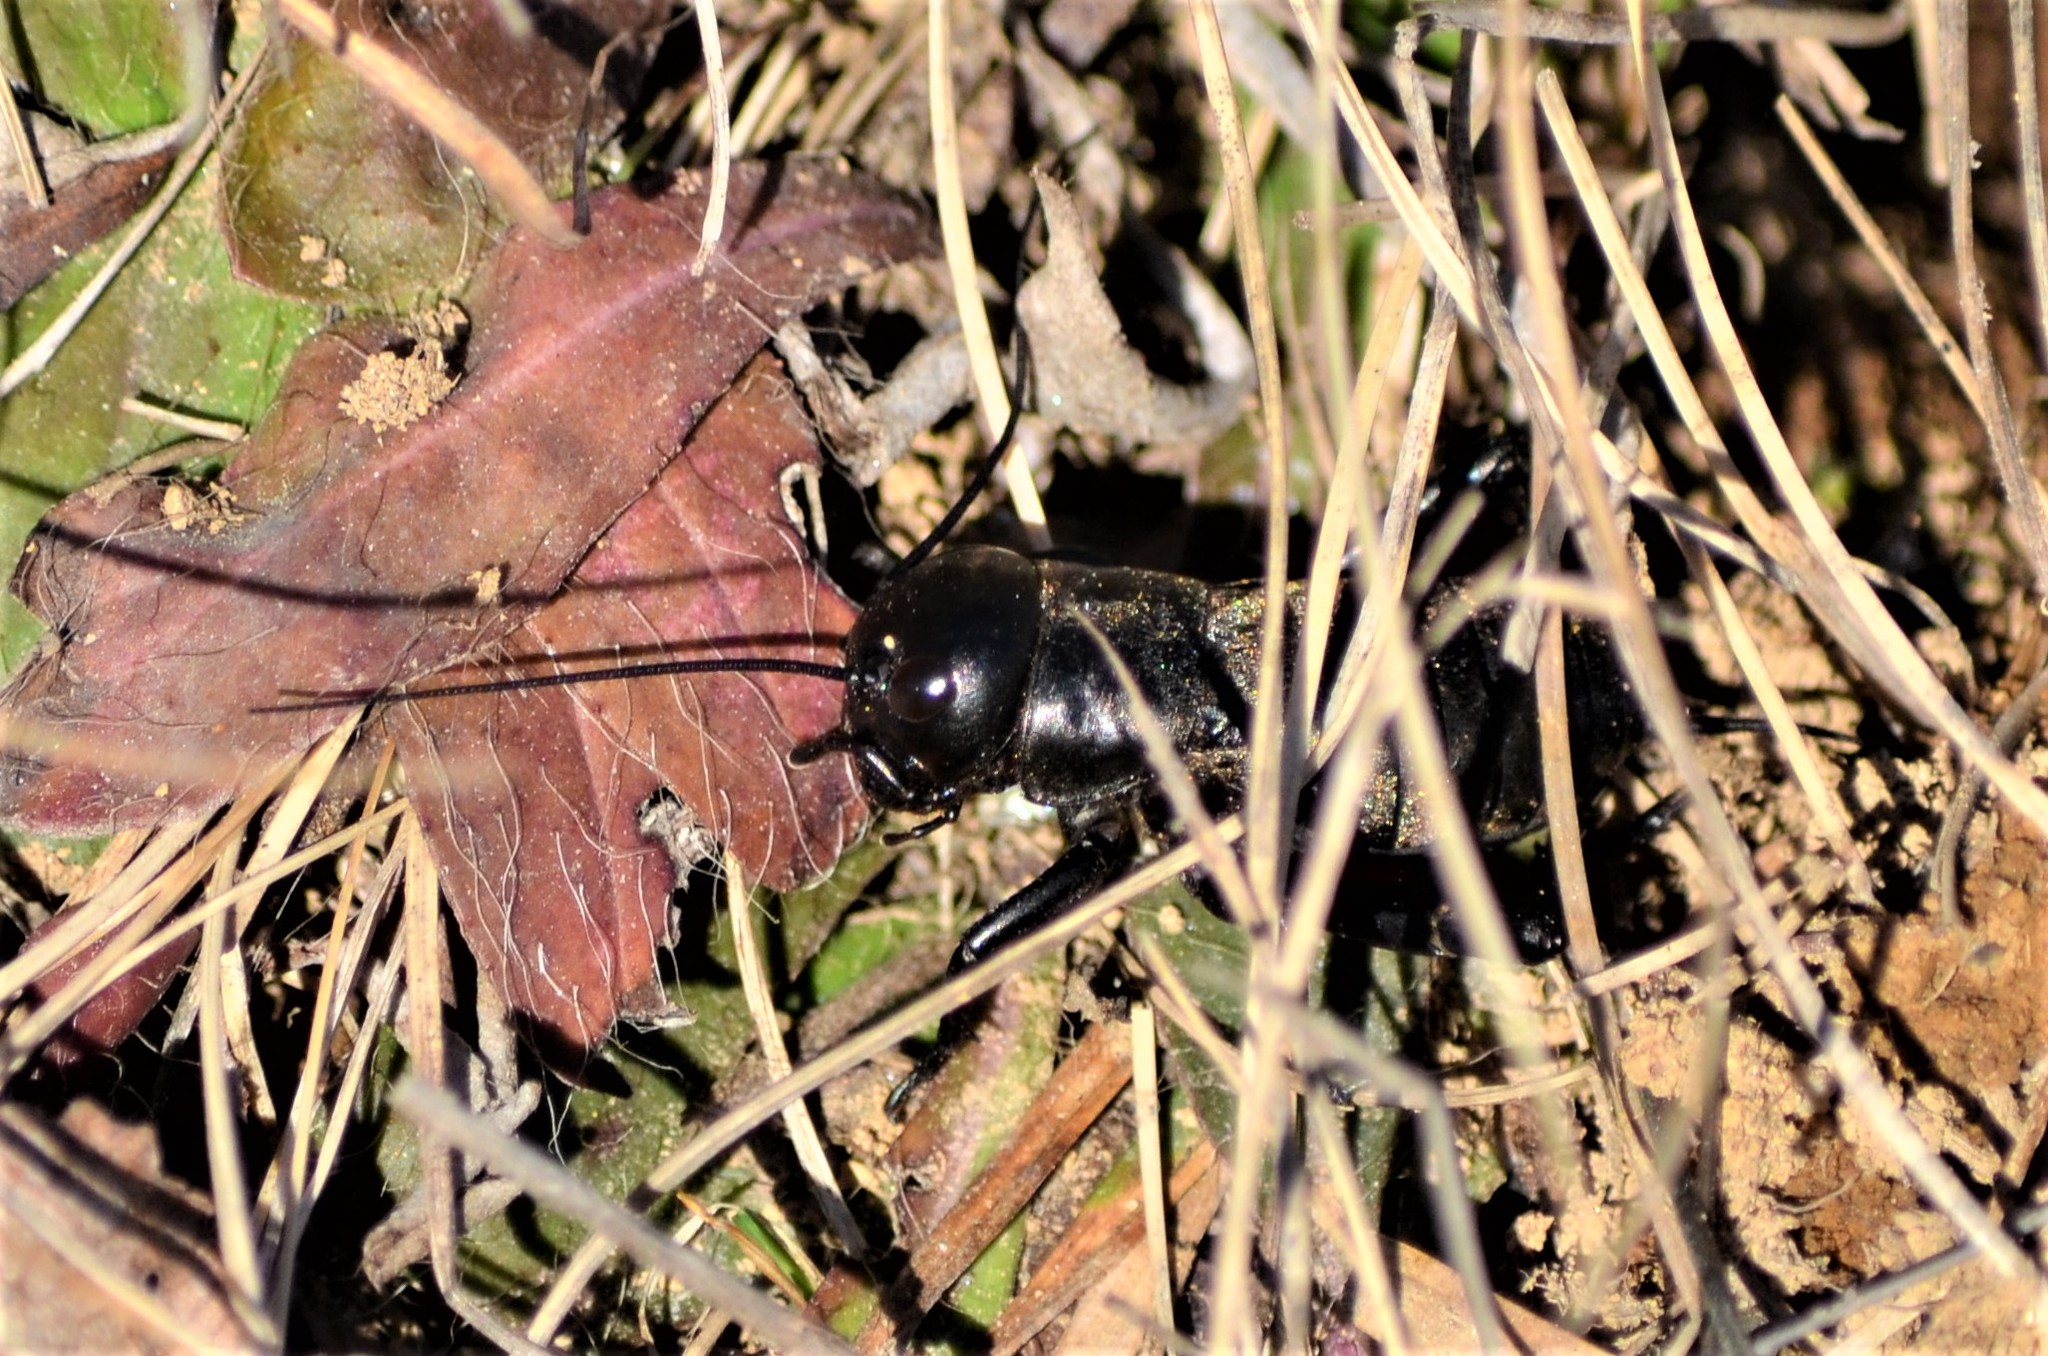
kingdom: Animalia
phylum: Arthropoda
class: Insecta
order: Orthoptera
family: Gryllidae
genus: Gryllus
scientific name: Gryllus campestris
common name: Field cricket
